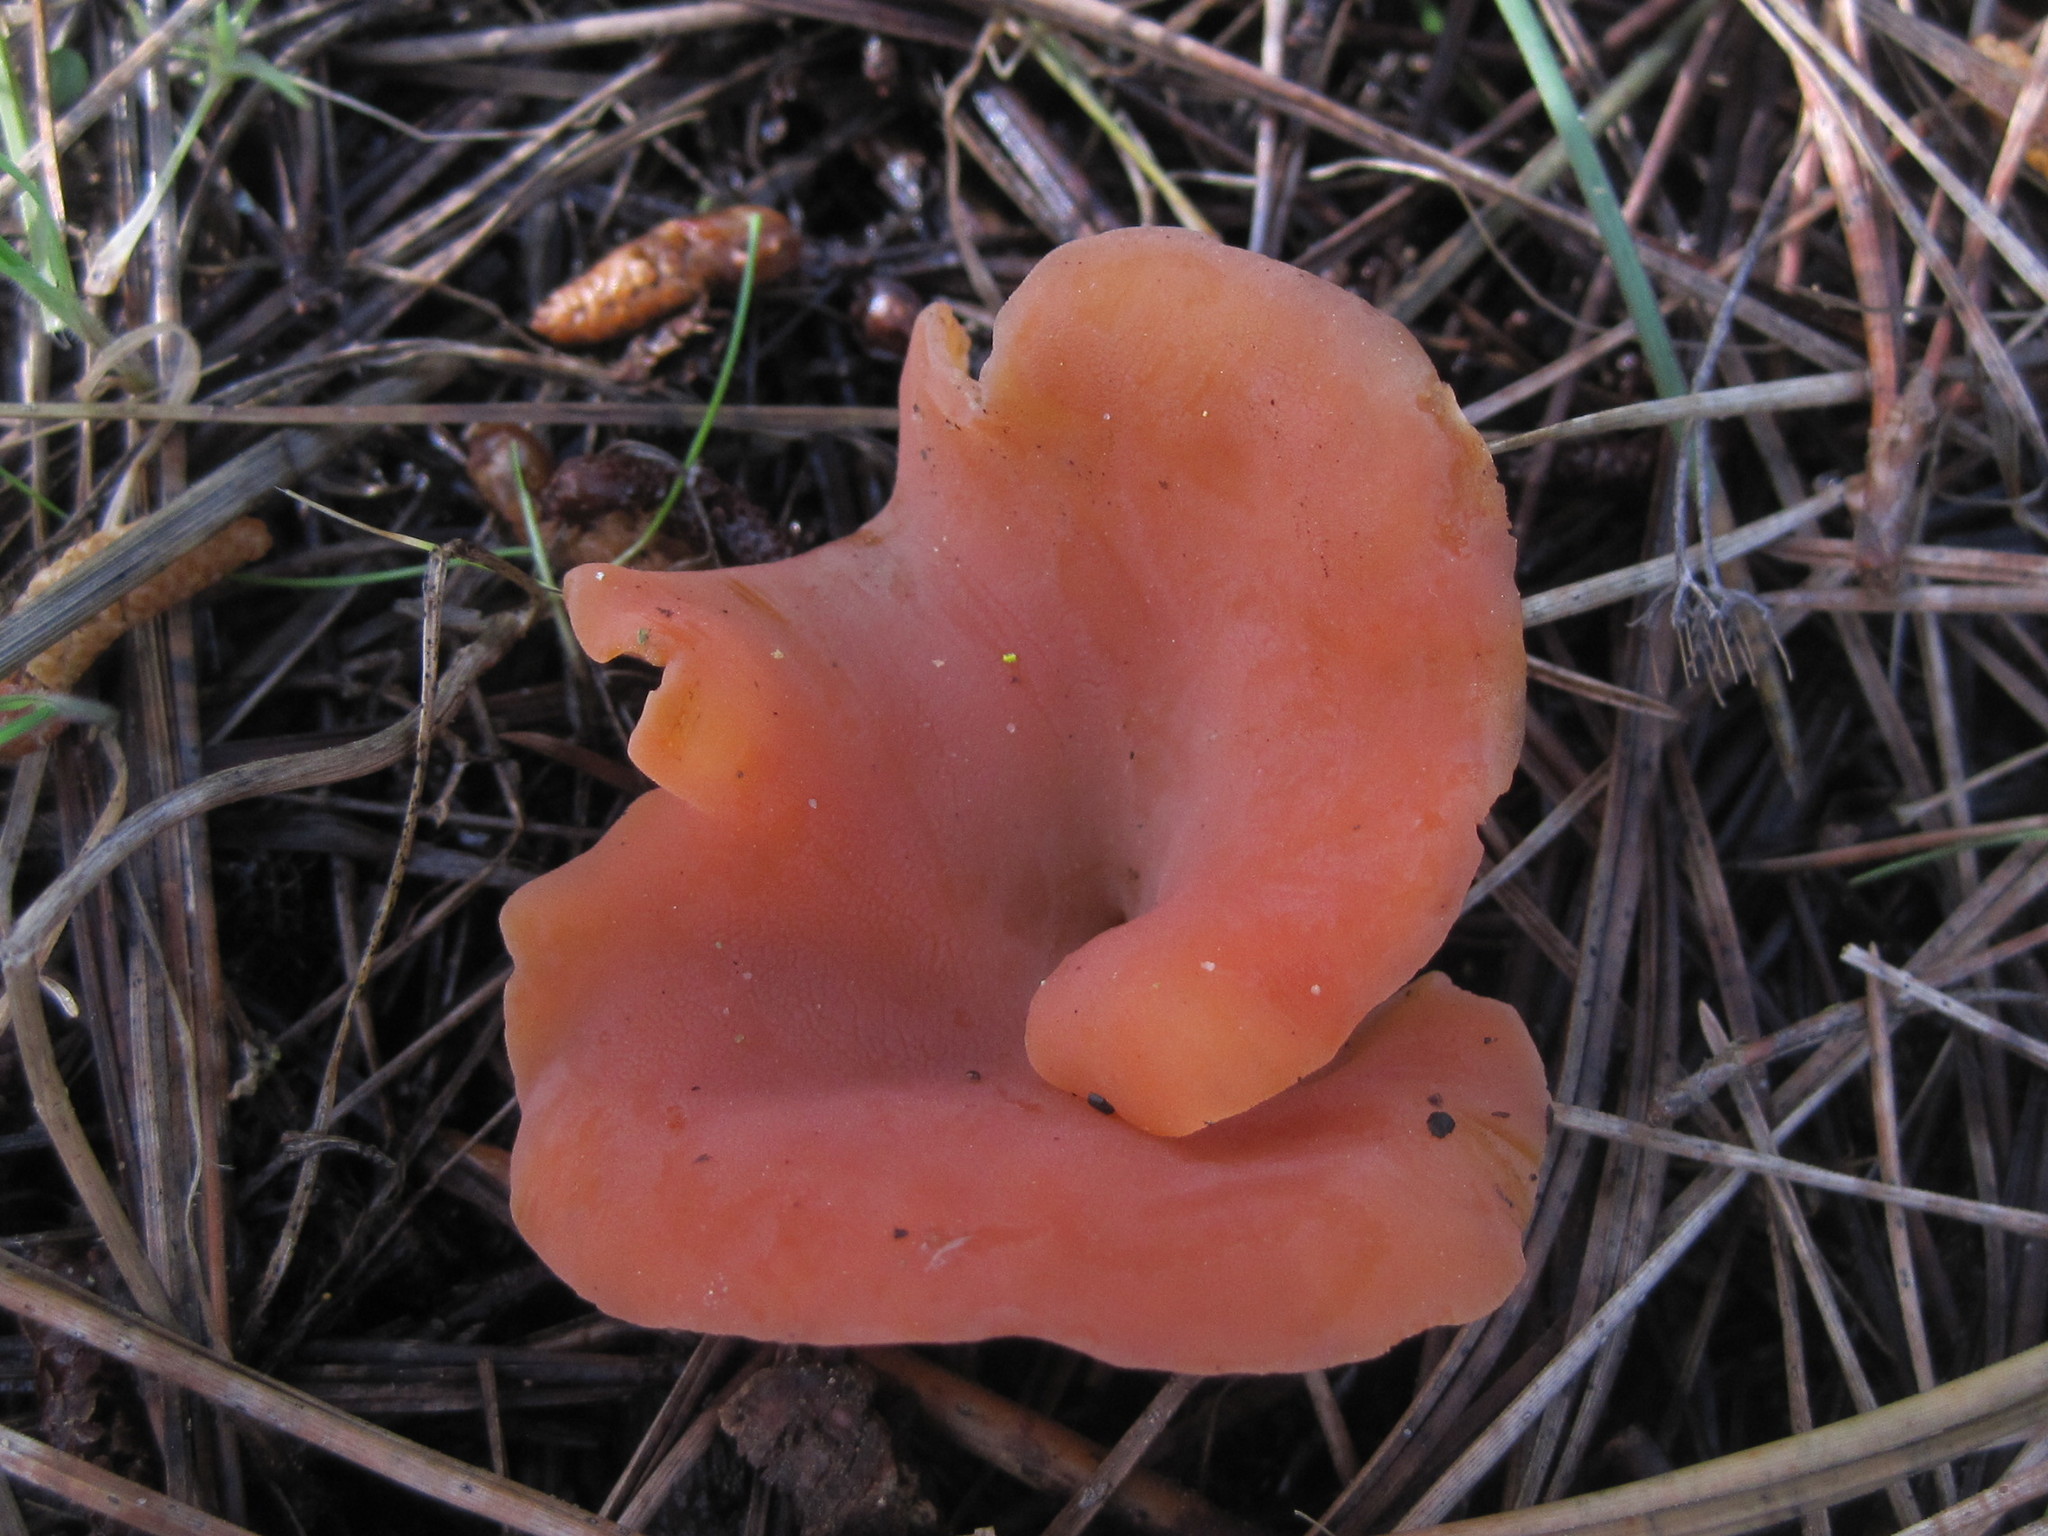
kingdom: Fungi
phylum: Basidiomycota
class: Agaricomycetes
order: Auriculariales
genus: Guepinia
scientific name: Guepinia helvelloides
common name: Salmon salad
